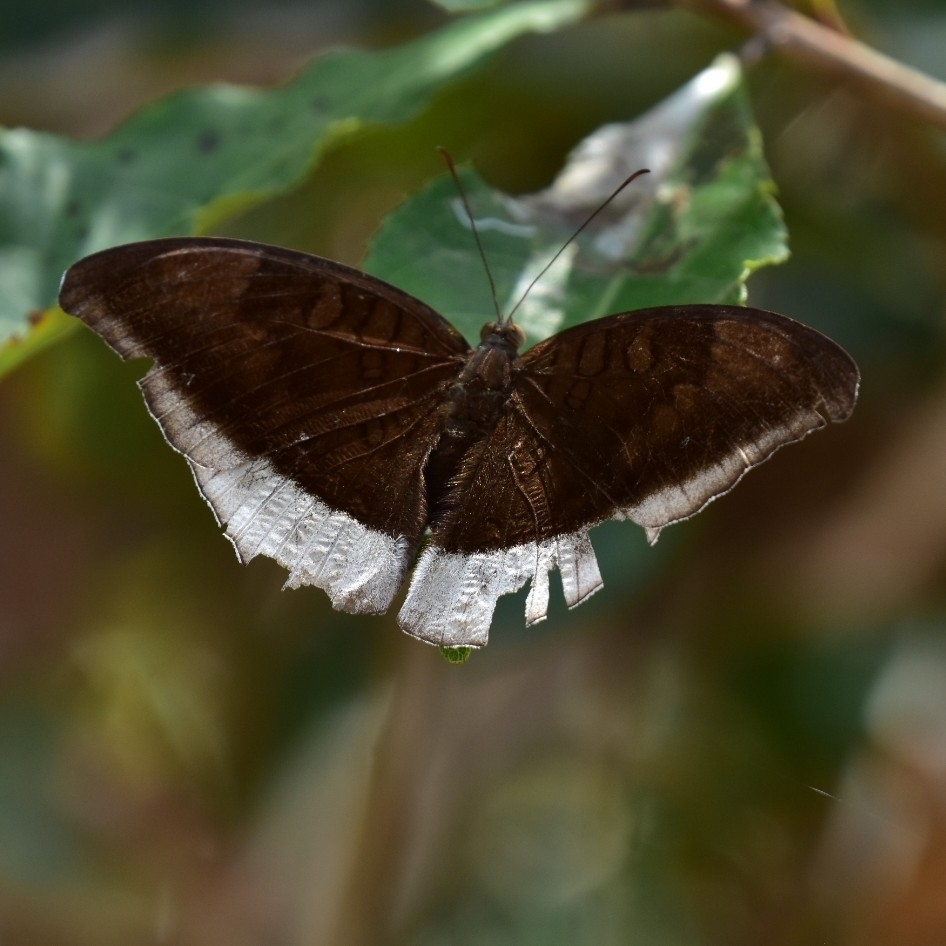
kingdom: Animalia
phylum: Arthropoda
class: Insecta
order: Lepidoptera
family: Nymphalidae
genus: Tanaecia
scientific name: Tanaecia lepidea
